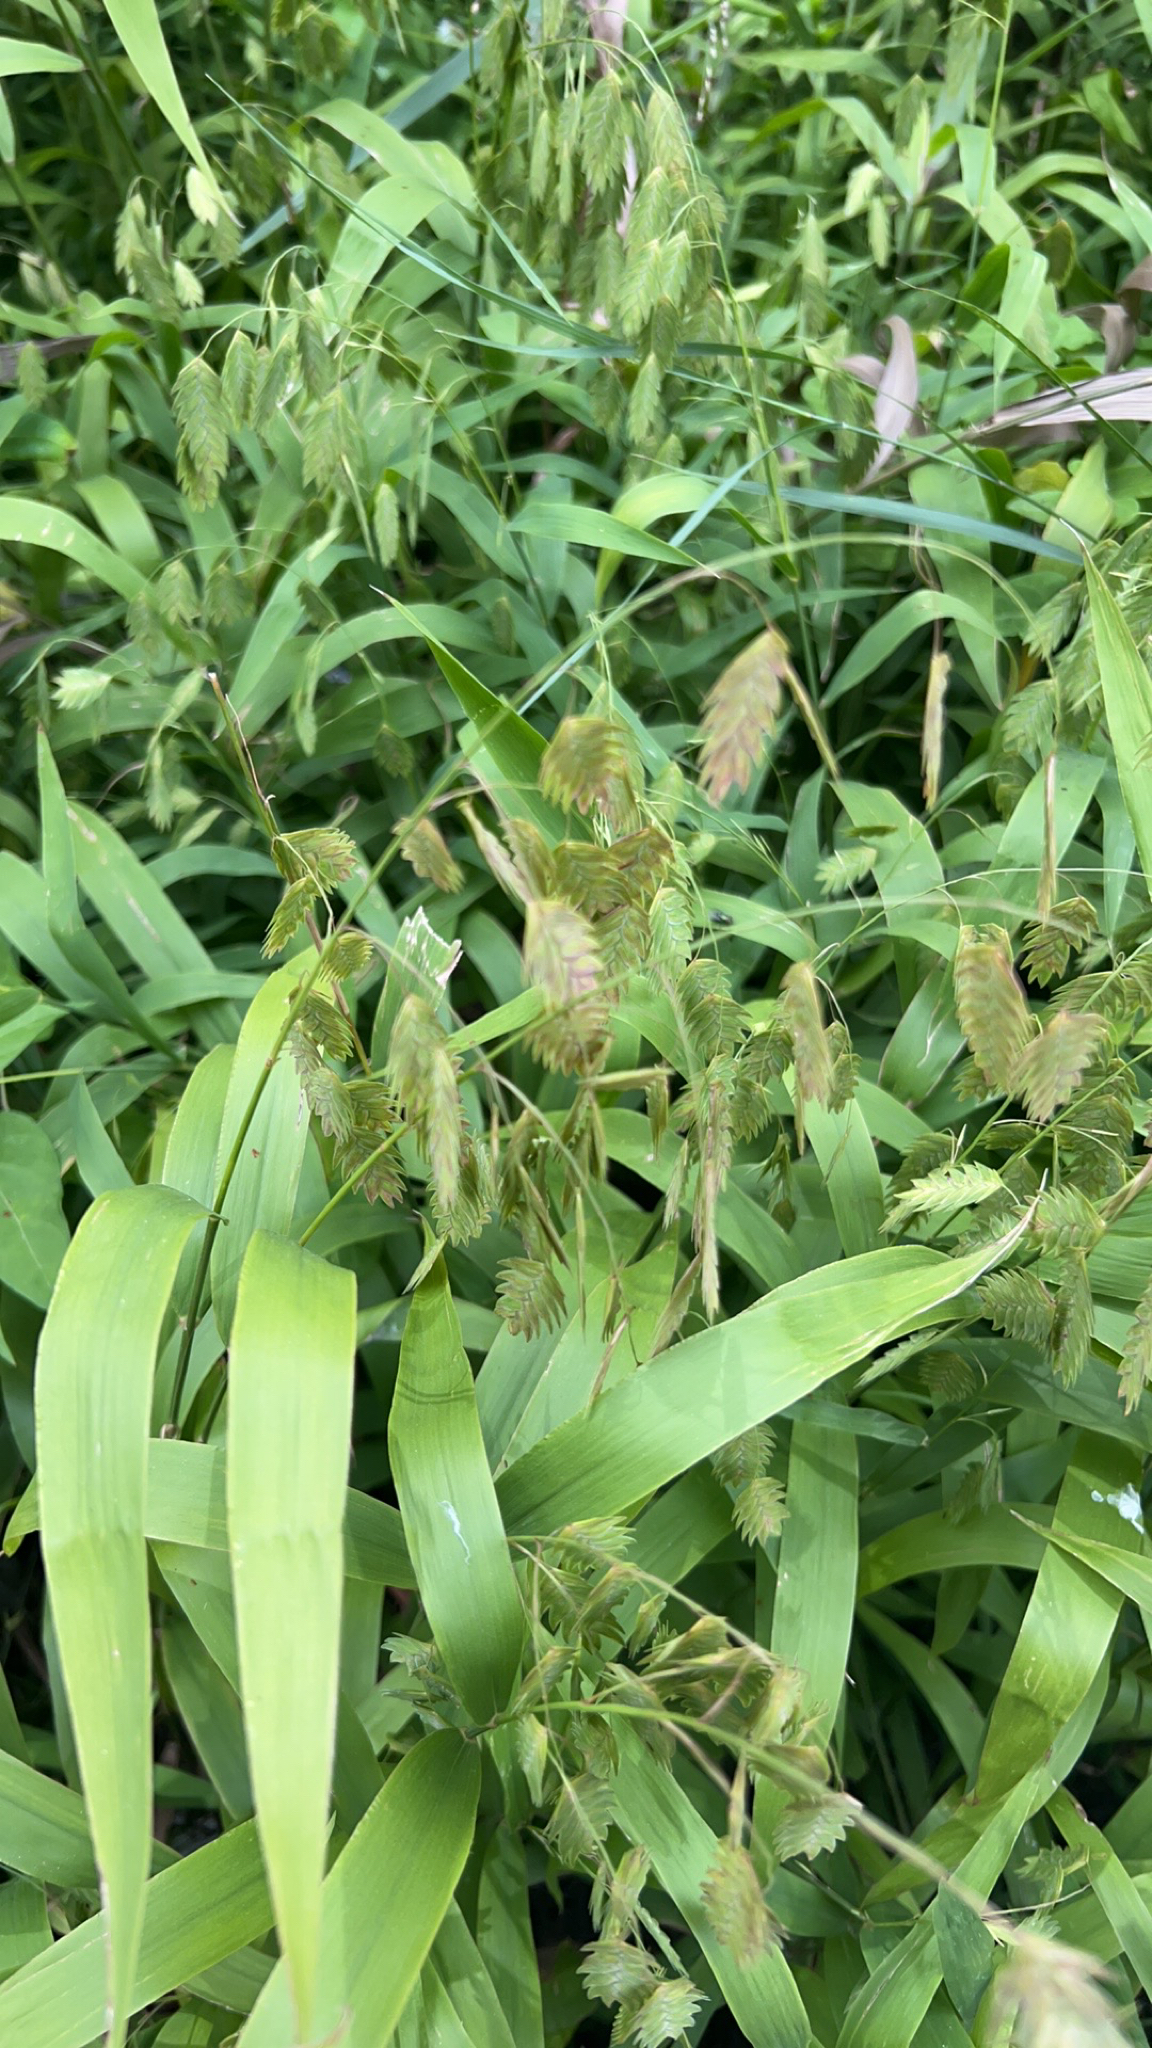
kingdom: Plantae
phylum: Tracheophyta
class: Liliopsida
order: Poales
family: Poaceae
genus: Chasmanthium
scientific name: Chasmanthium latifolium
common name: Broad-leaved chasmanthium
